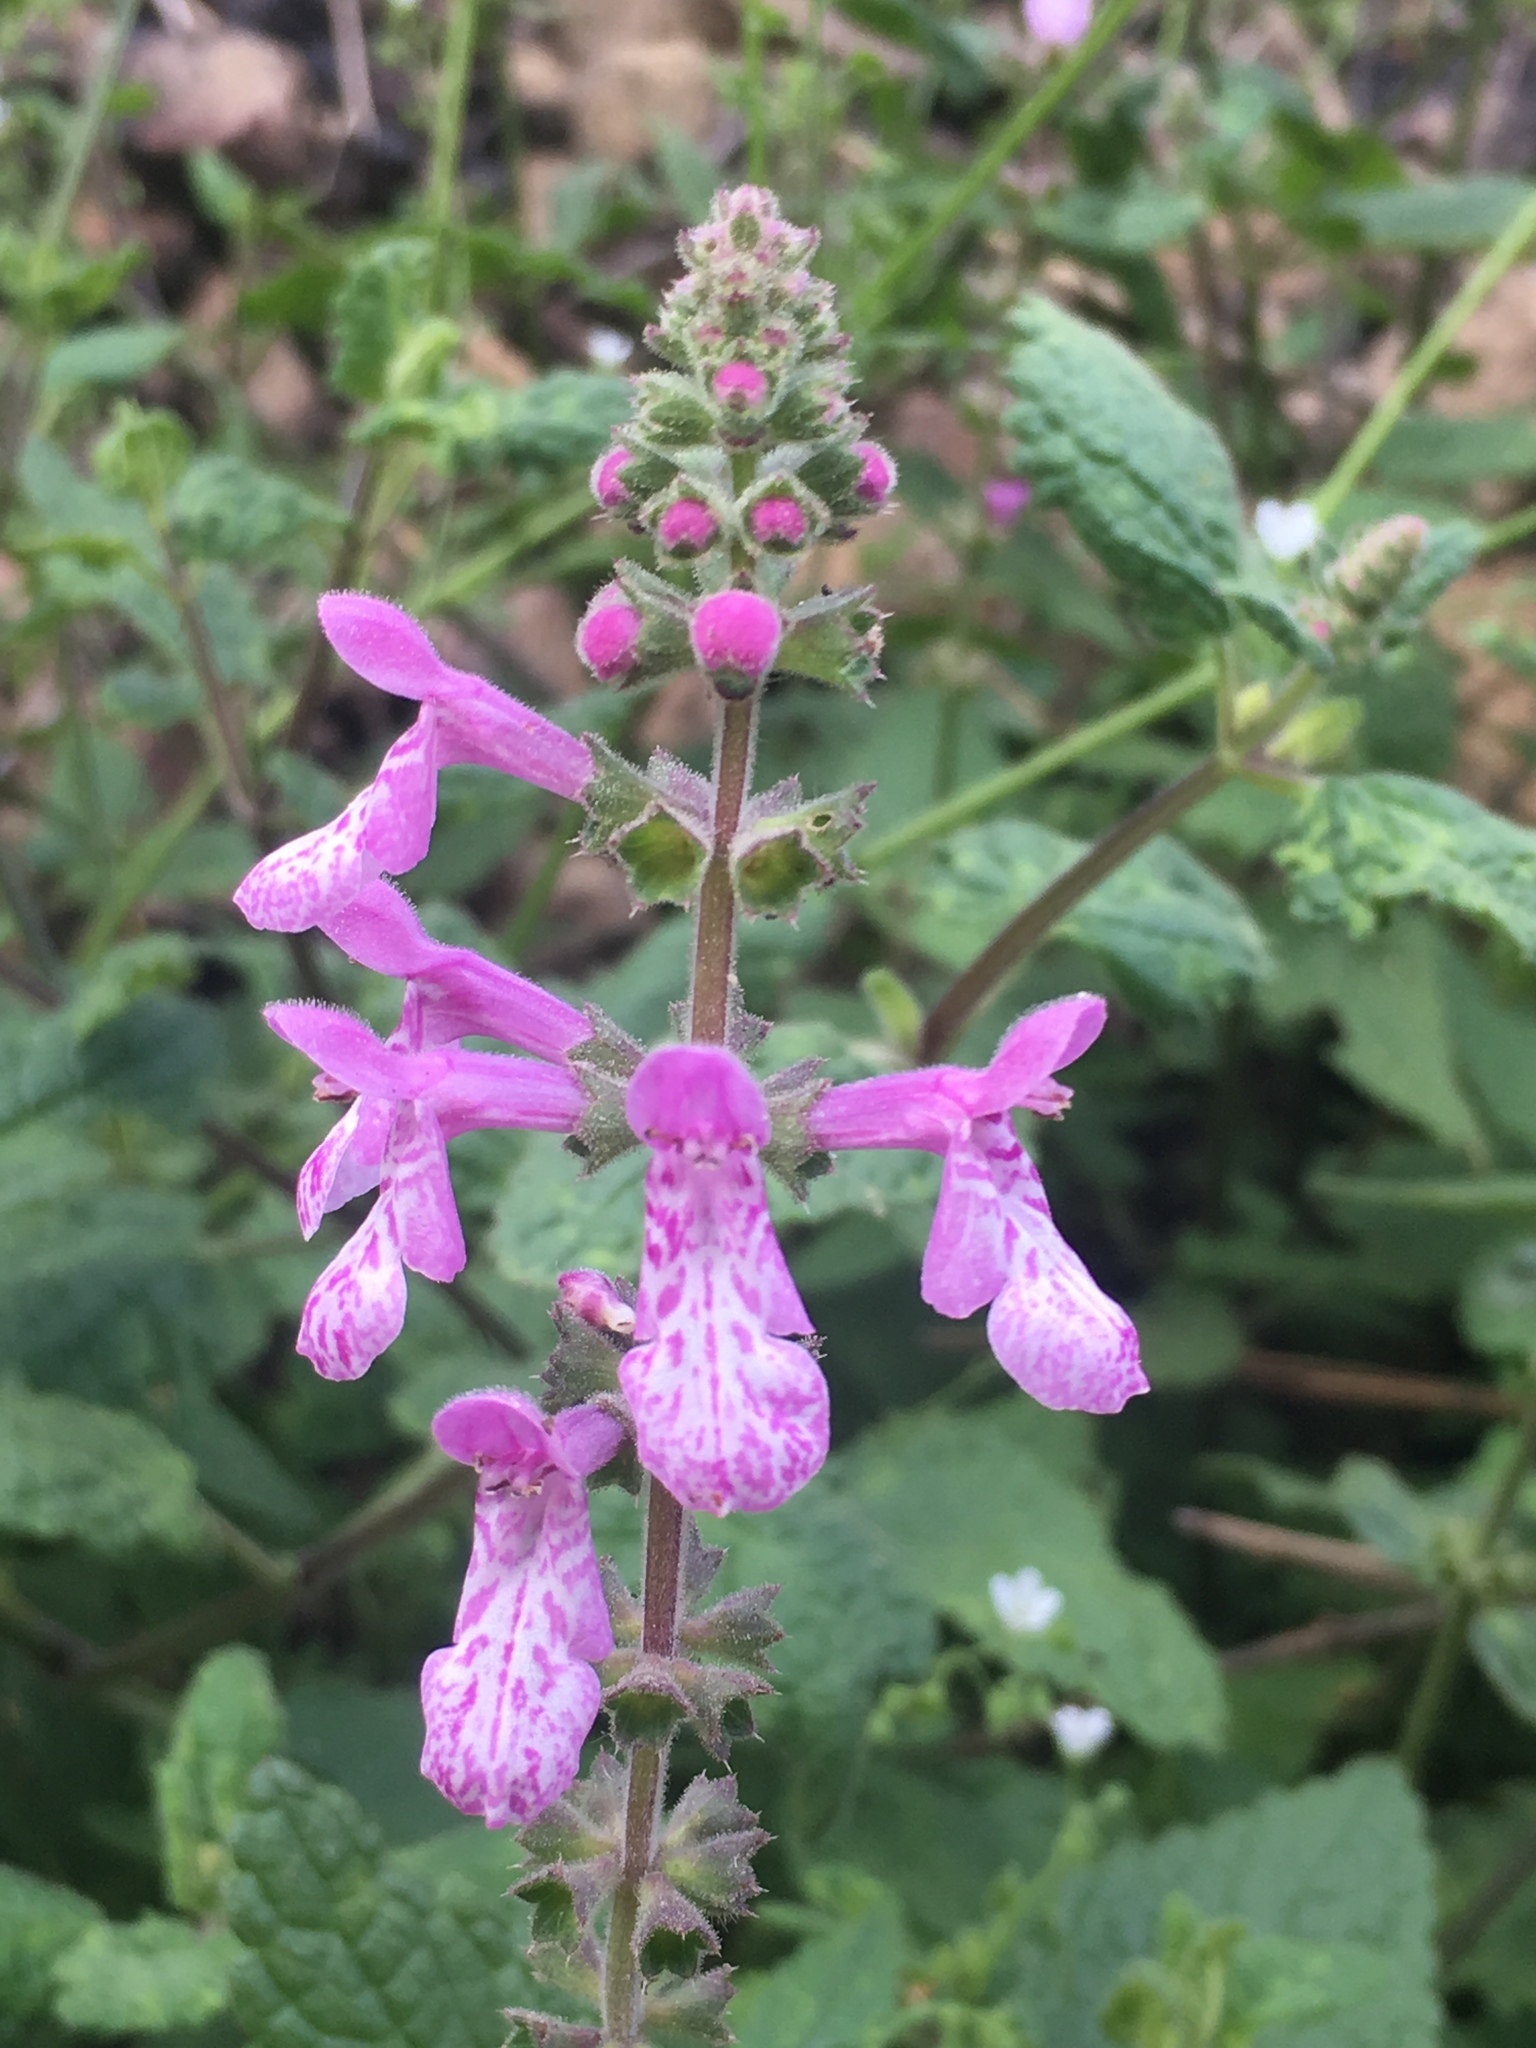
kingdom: Plantae
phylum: Tracheophyta
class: Magnoliopsida
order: Lamiales
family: Lamiaceae
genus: Stachys
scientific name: Stachys bullata
